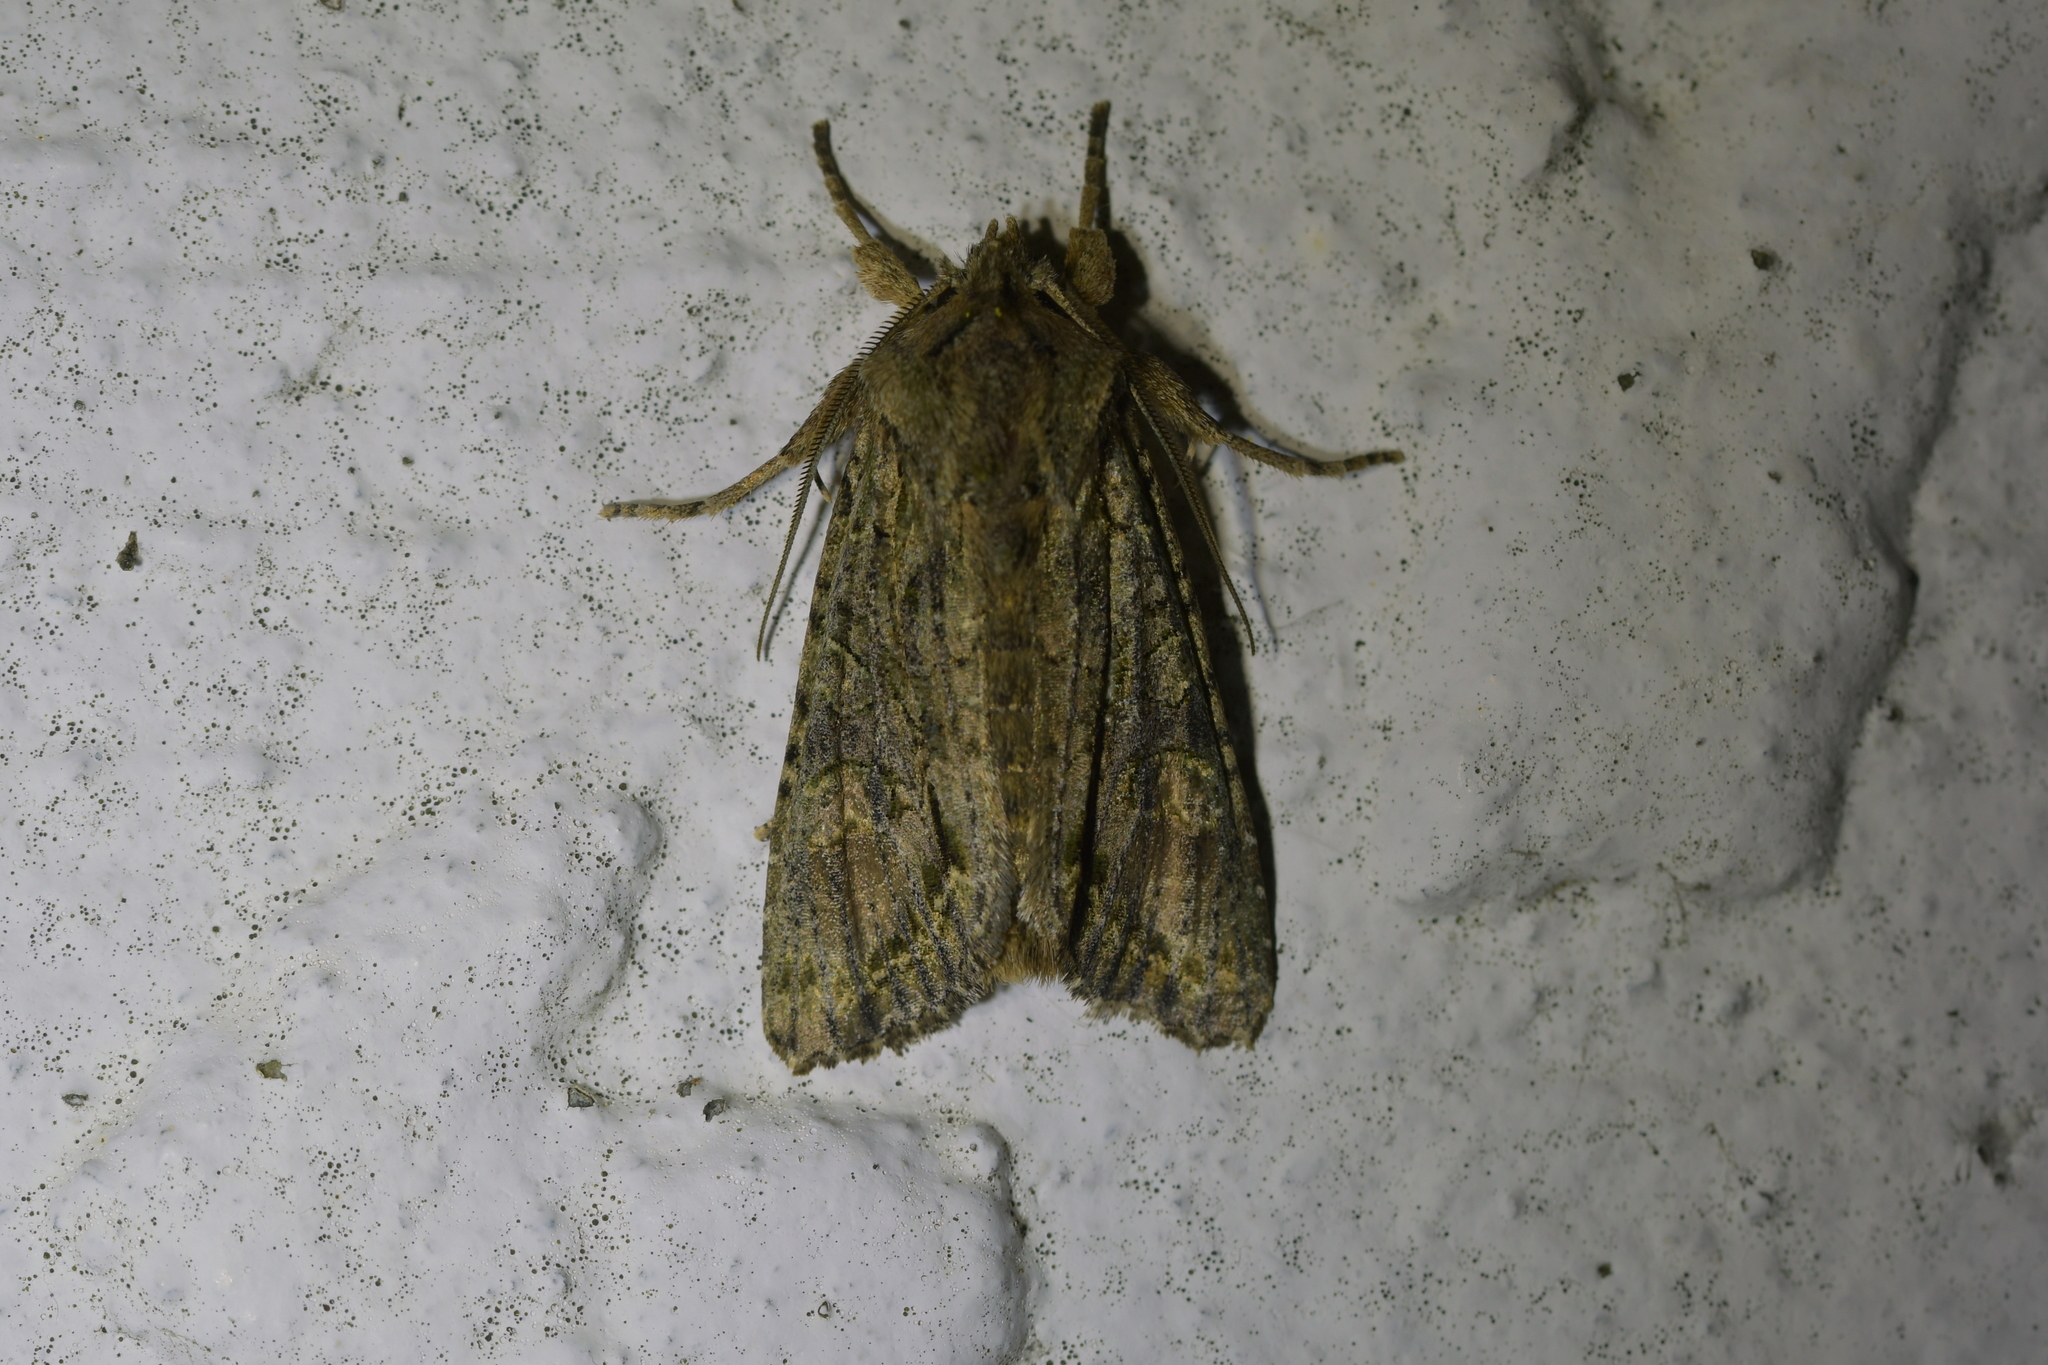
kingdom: Animalia
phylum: Arthropoda
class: Insecta
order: Lepidoptera
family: Noctuidae
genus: Ichneutica
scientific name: Ichneutica mutans
